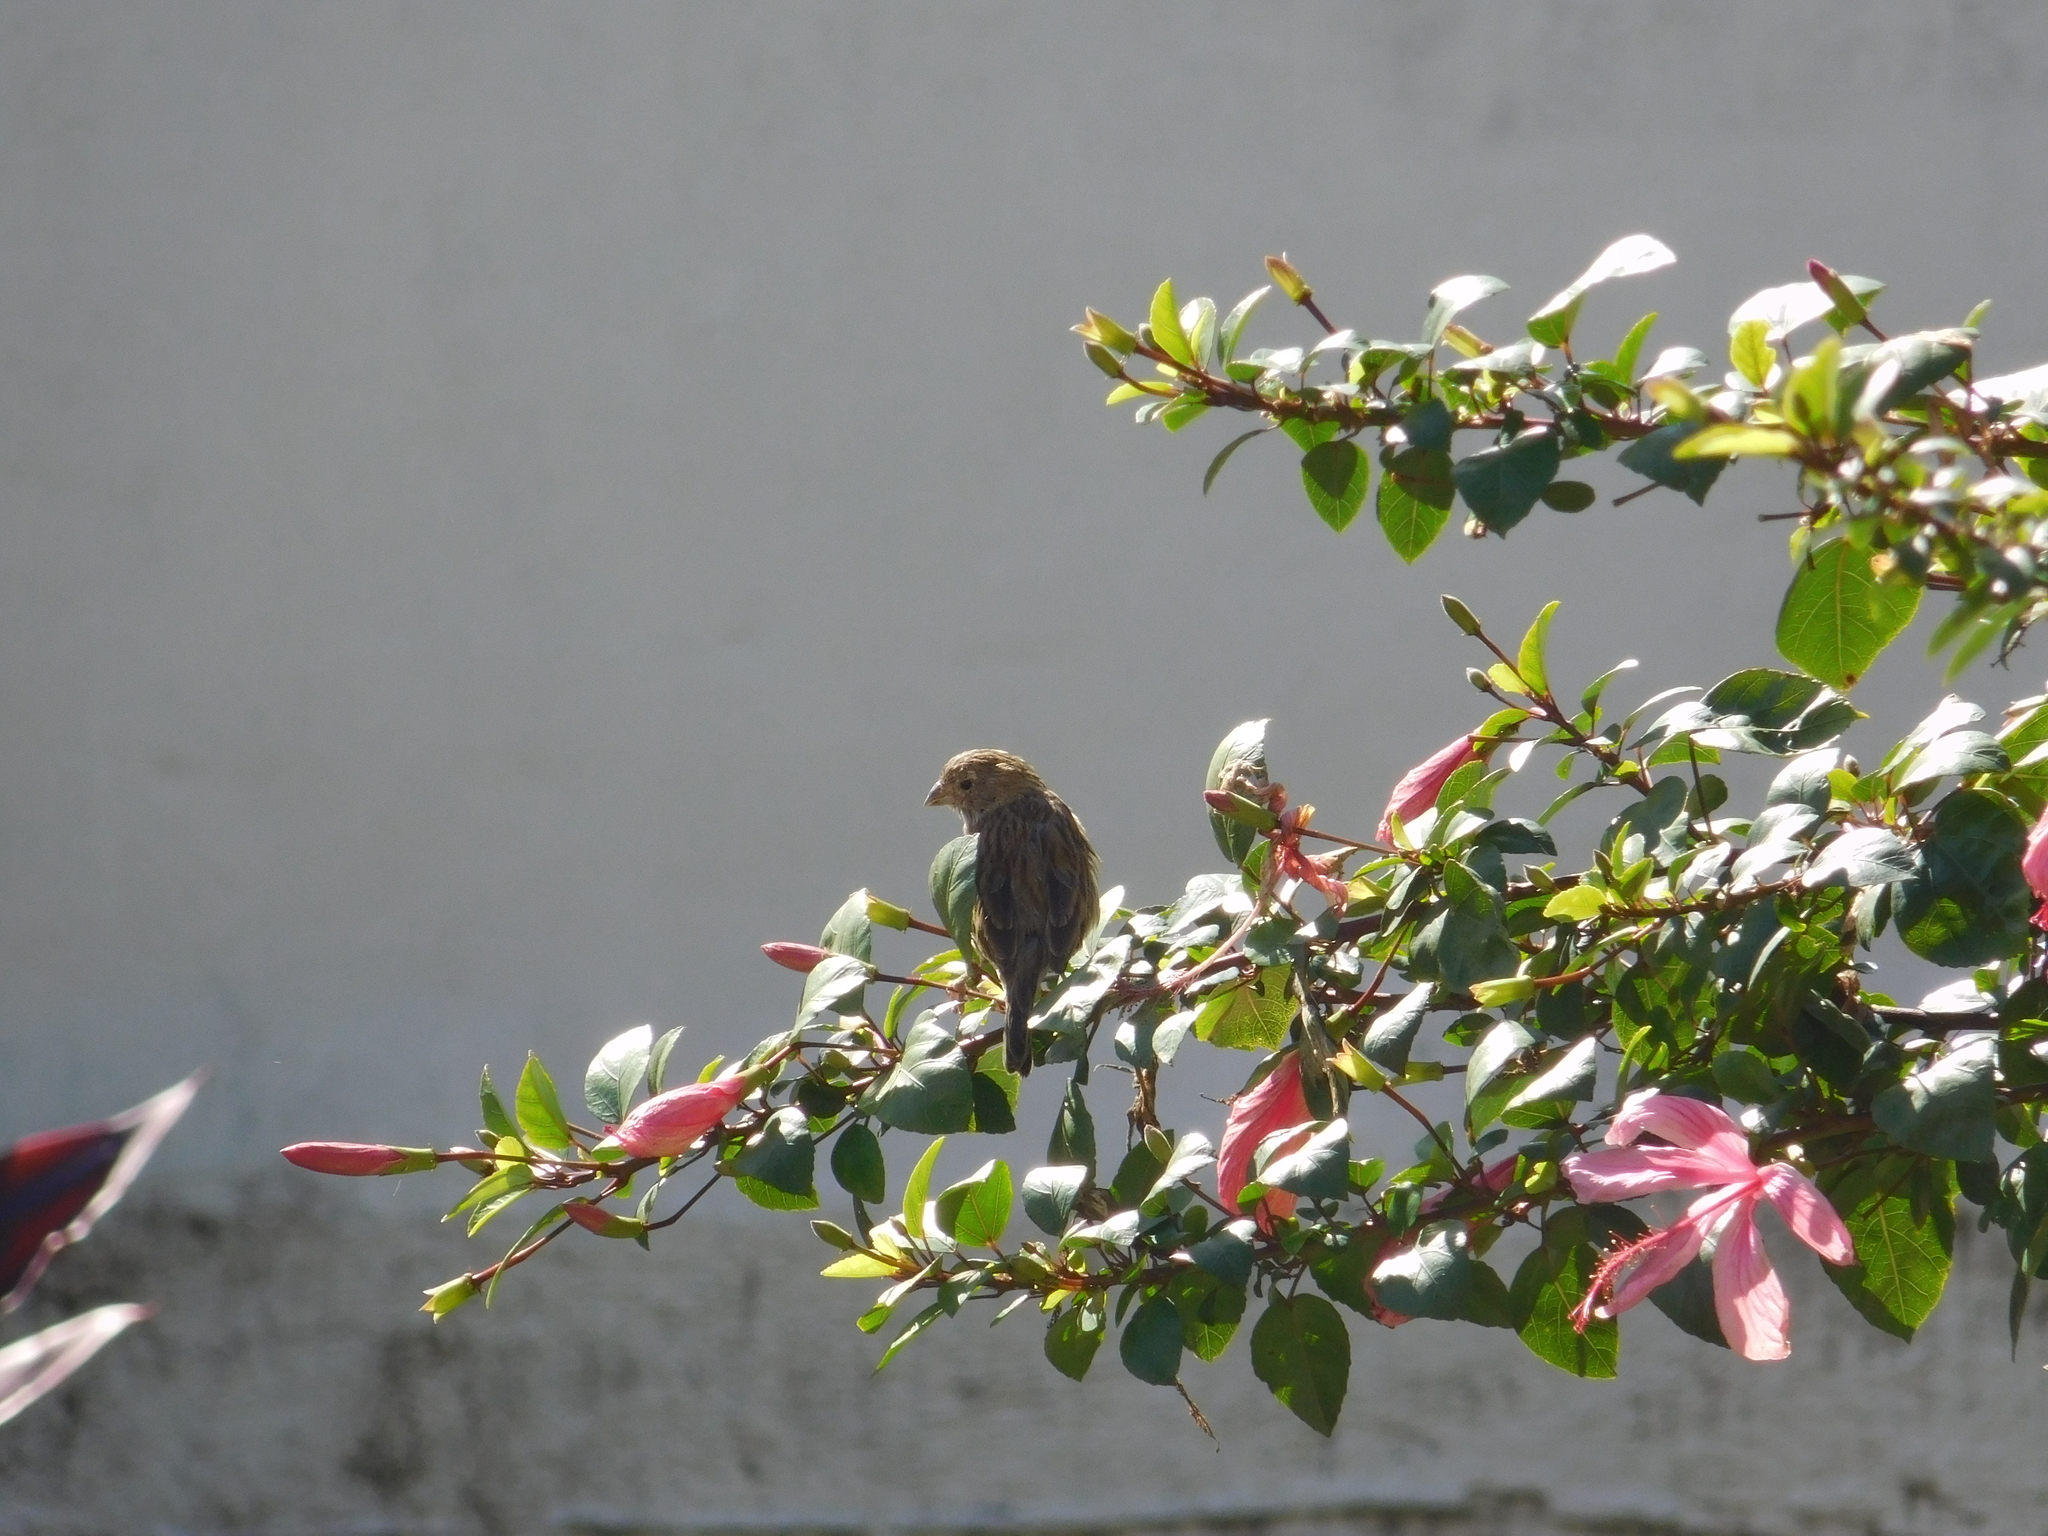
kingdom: Animalia
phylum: Chordata
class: Aves
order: Passeriformes
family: Thraupidae
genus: Sicalis
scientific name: Sicalis flaveola
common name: Saffron finch
